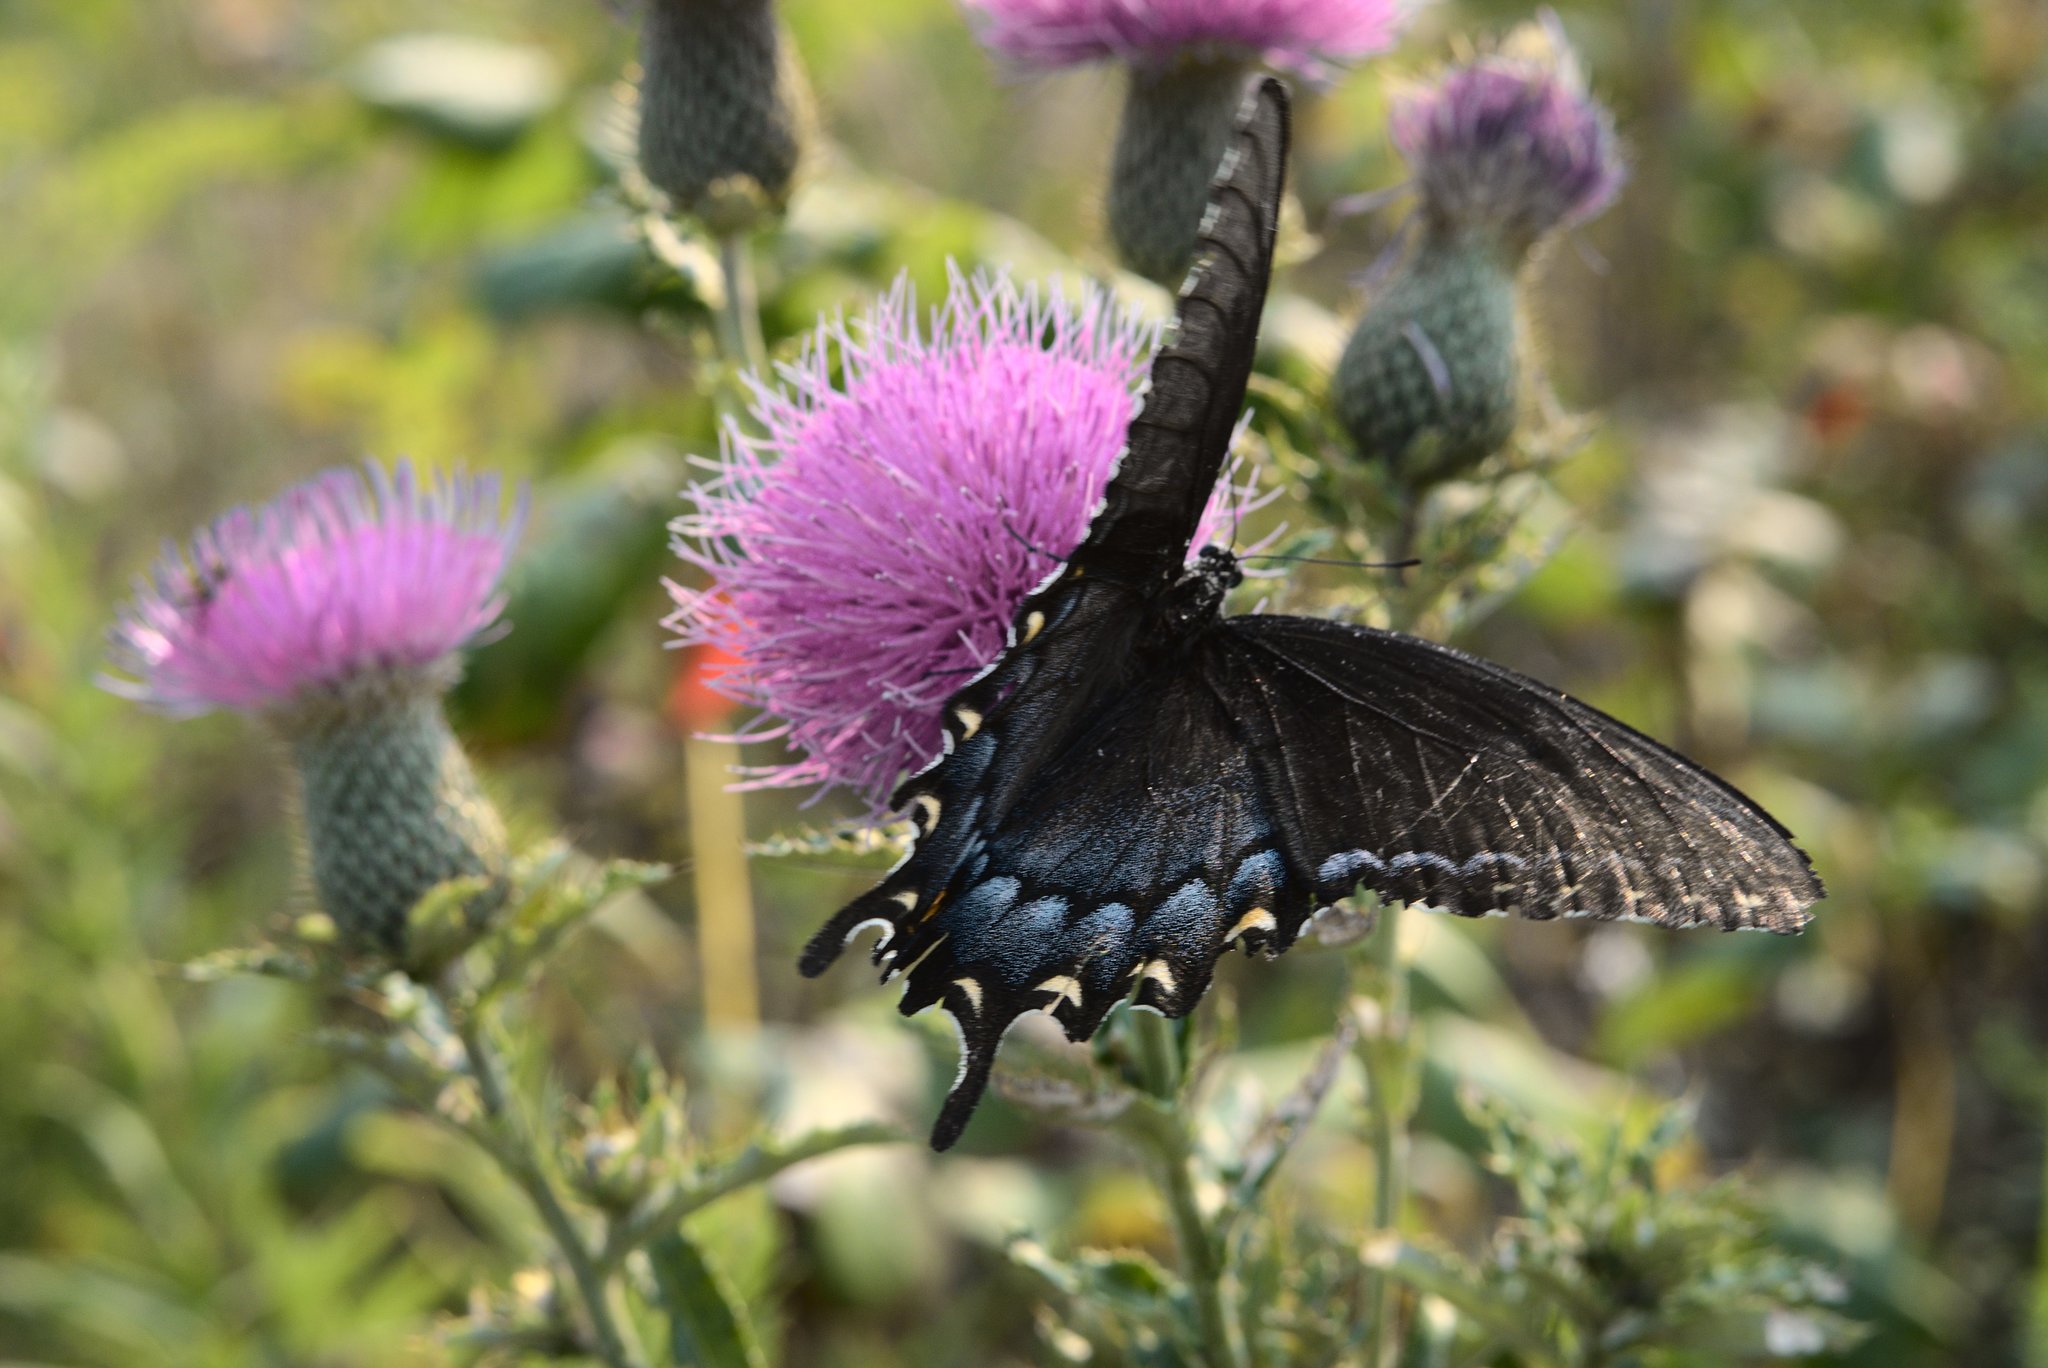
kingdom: Animalia
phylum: Arthropoda
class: Insecta
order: Lepidoptera
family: Papilionidae
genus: Papilio
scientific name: Papilio glaucus
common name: Tiger swallowtail
